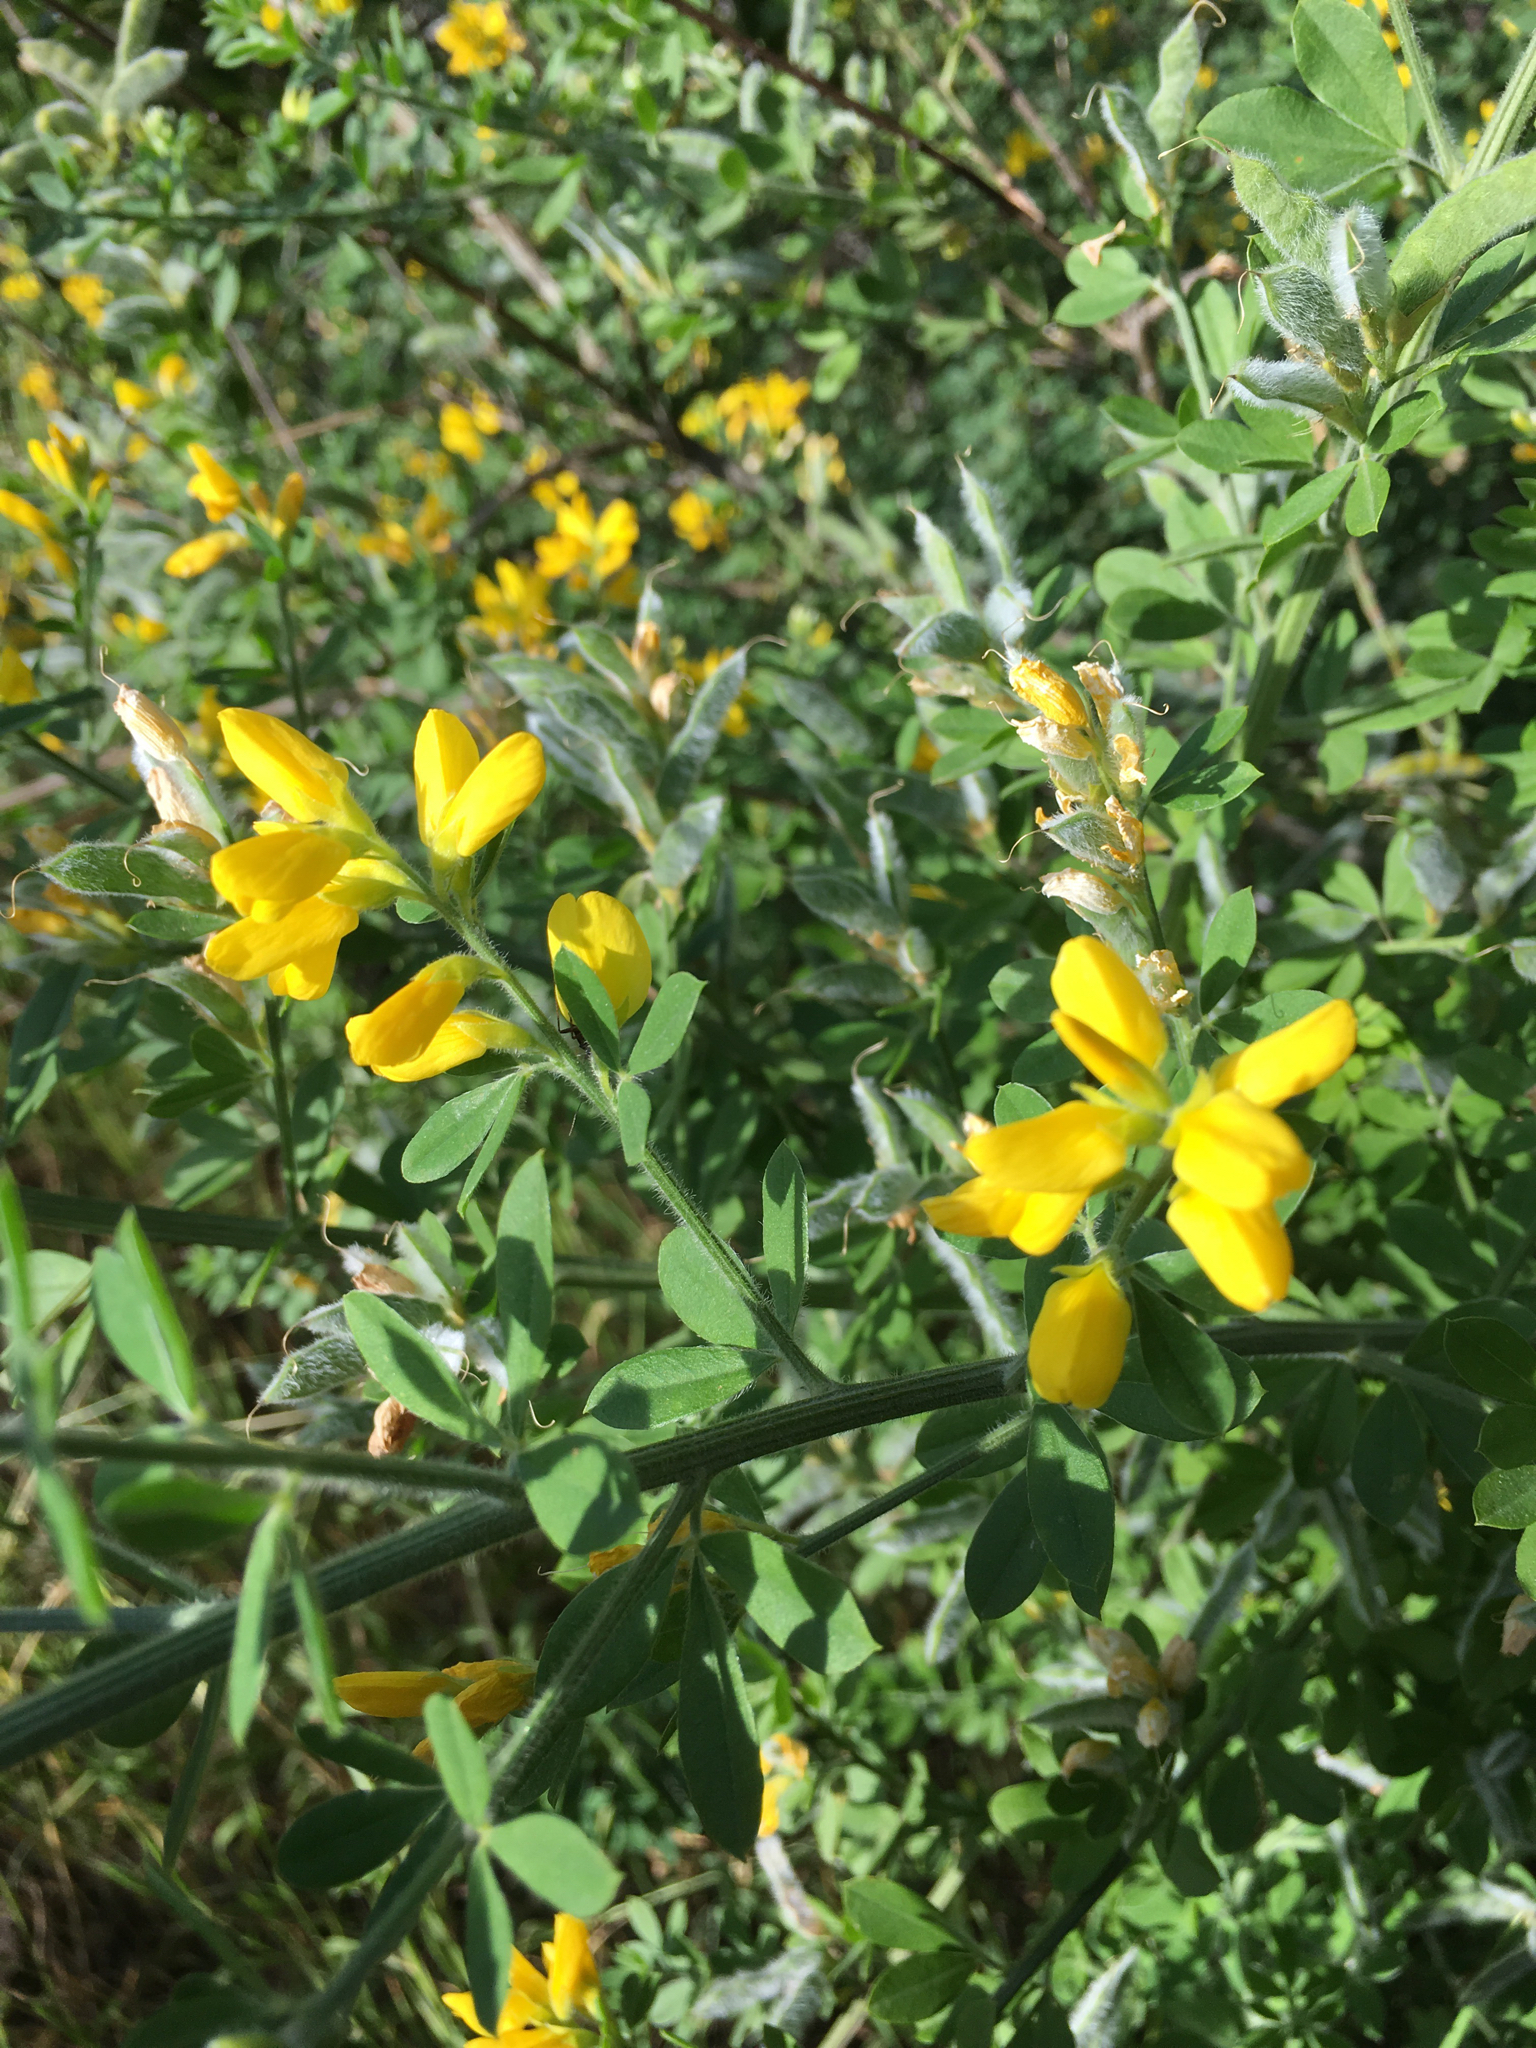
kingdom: Plantae
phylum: Tracheophyta
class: Magnoliopsida
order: Fabales
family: Fabaceae
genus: Genista
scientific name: Genista monspessulana
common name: Montpellier broom
